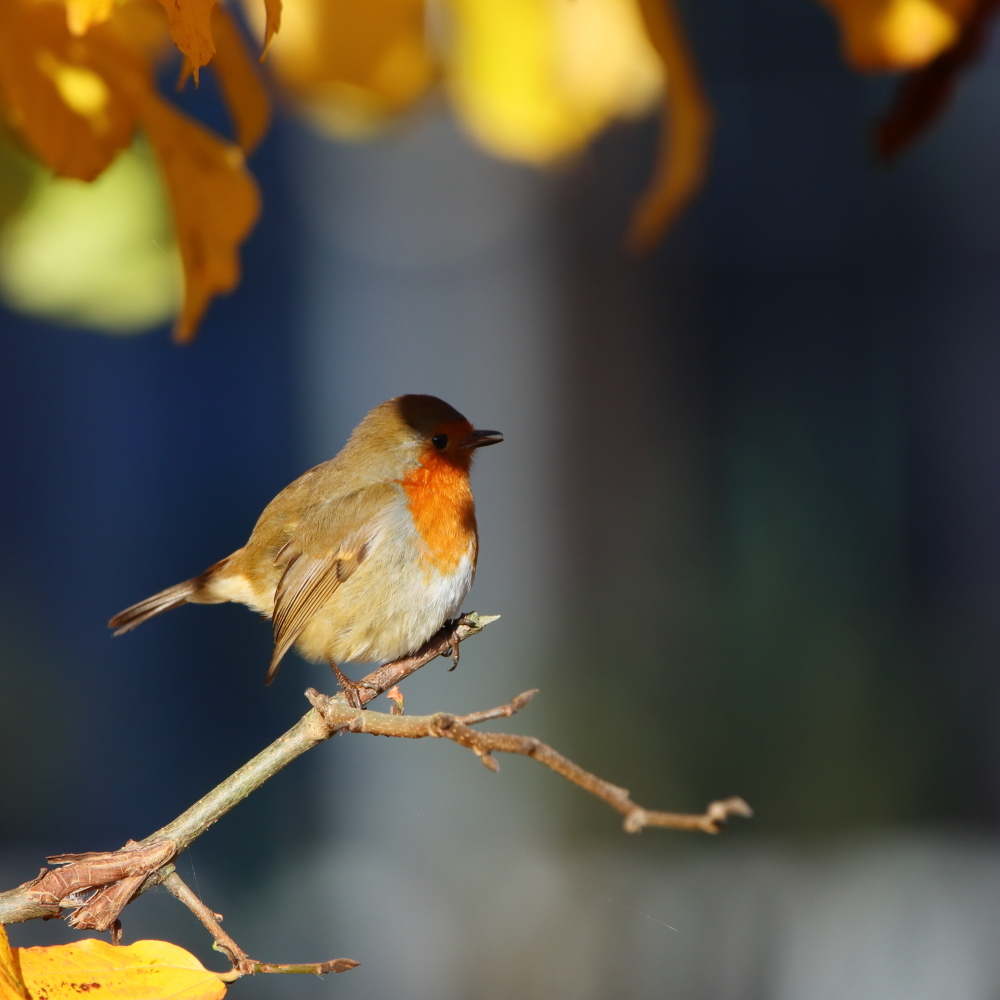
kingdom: Animalia
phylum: Chordata
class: Aves
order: Passeriformes
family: Muscicapidae
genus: Erithacus
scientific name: Erithacus rubecula
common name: European robin
